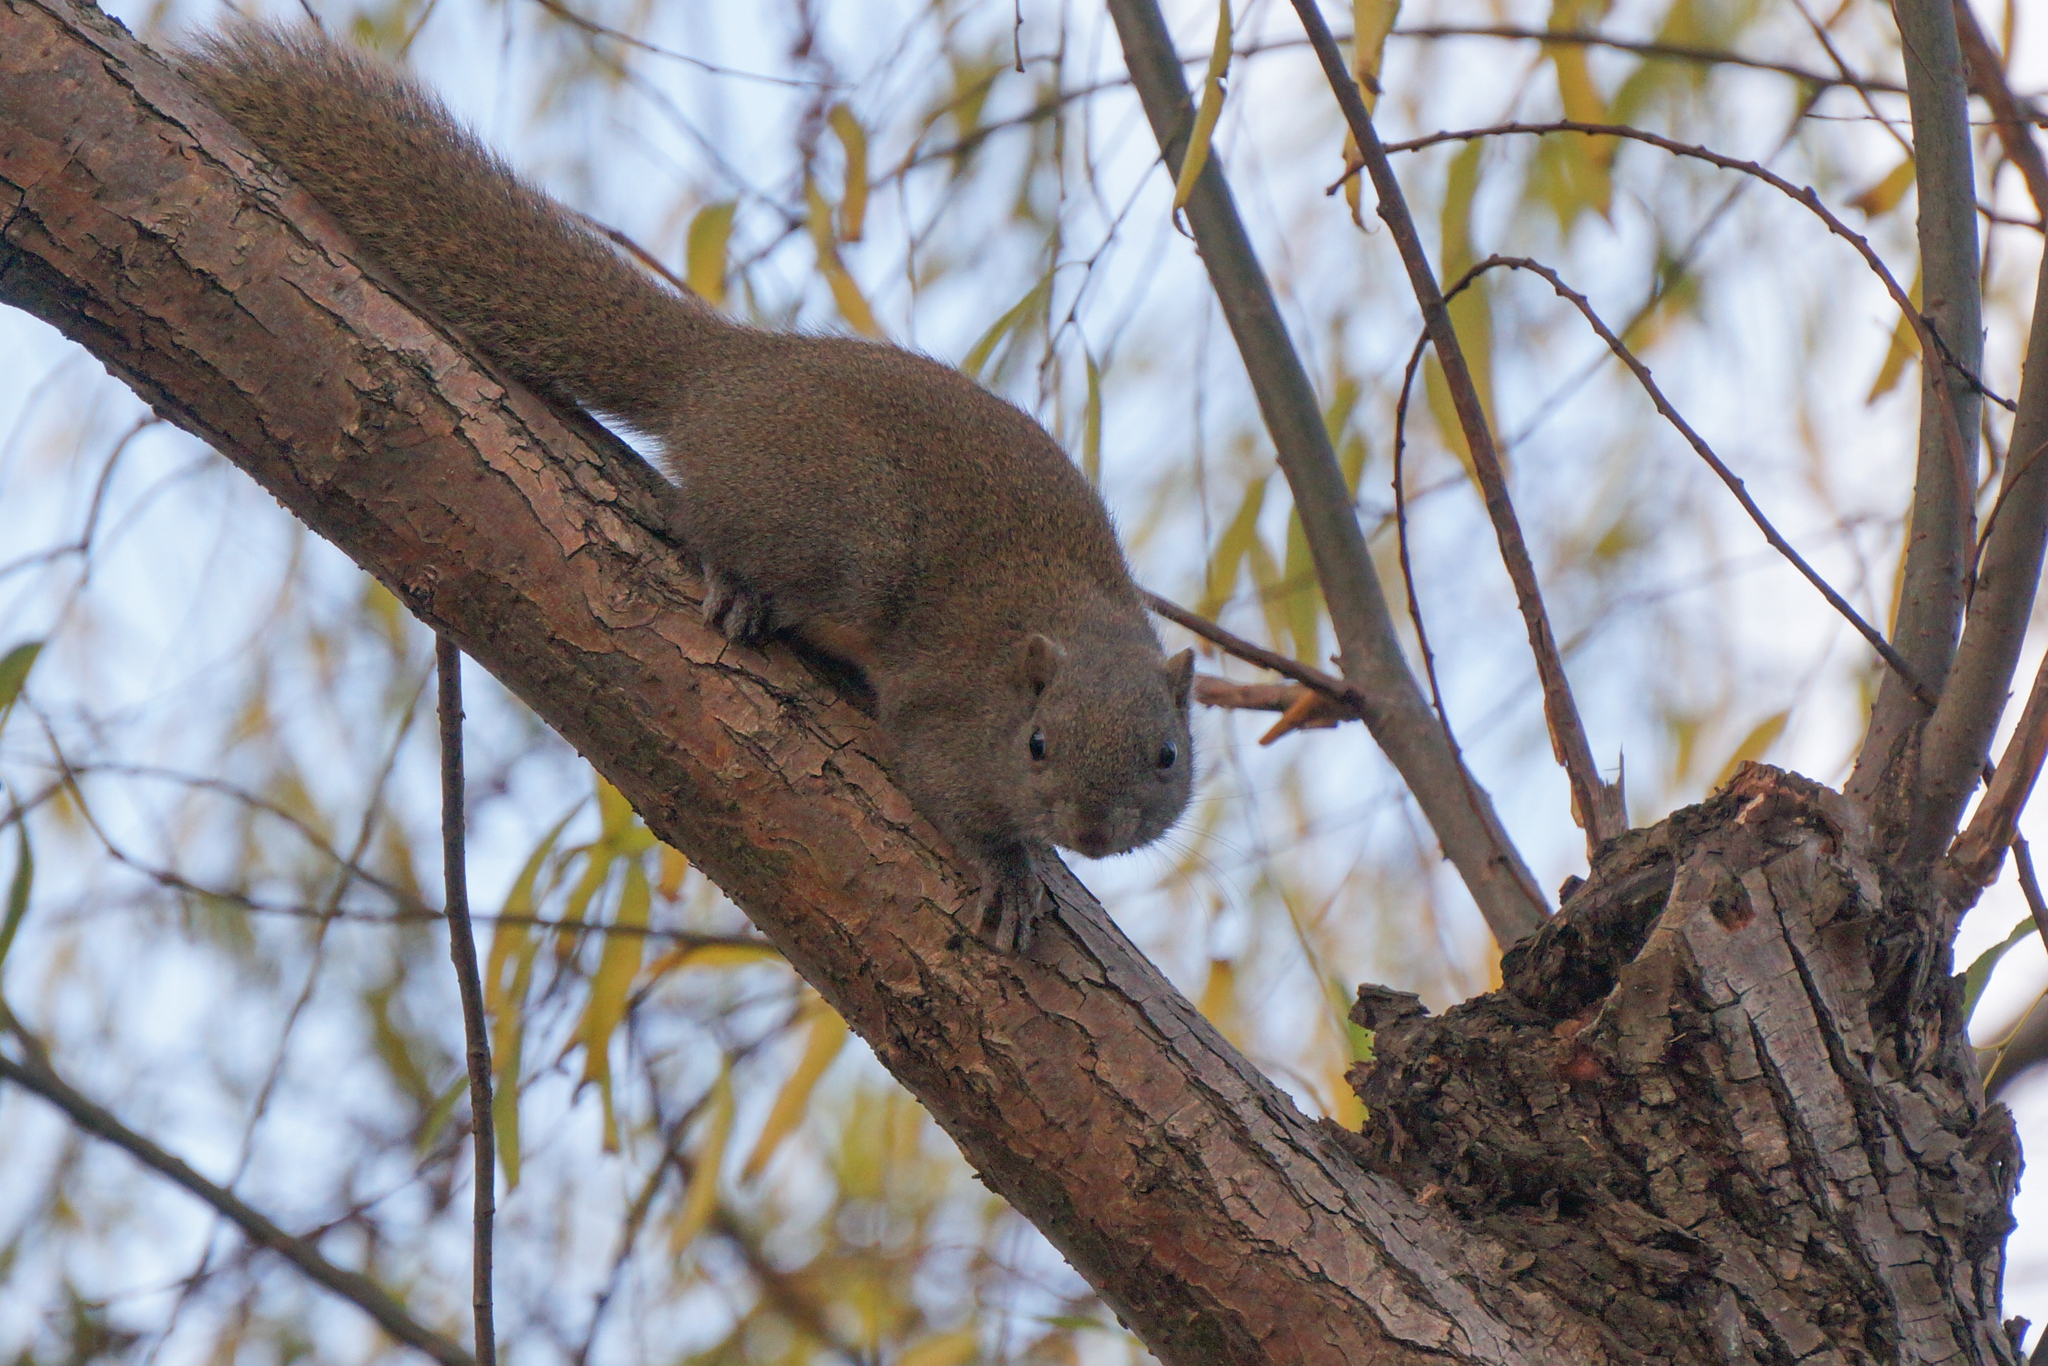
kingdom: Animalia
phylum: Chordata
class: Mammalia
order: Rodentia
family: Sciuridae
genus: Callosciurus
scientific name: Callosciurus erythraeus
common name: Pallas's squirrel
